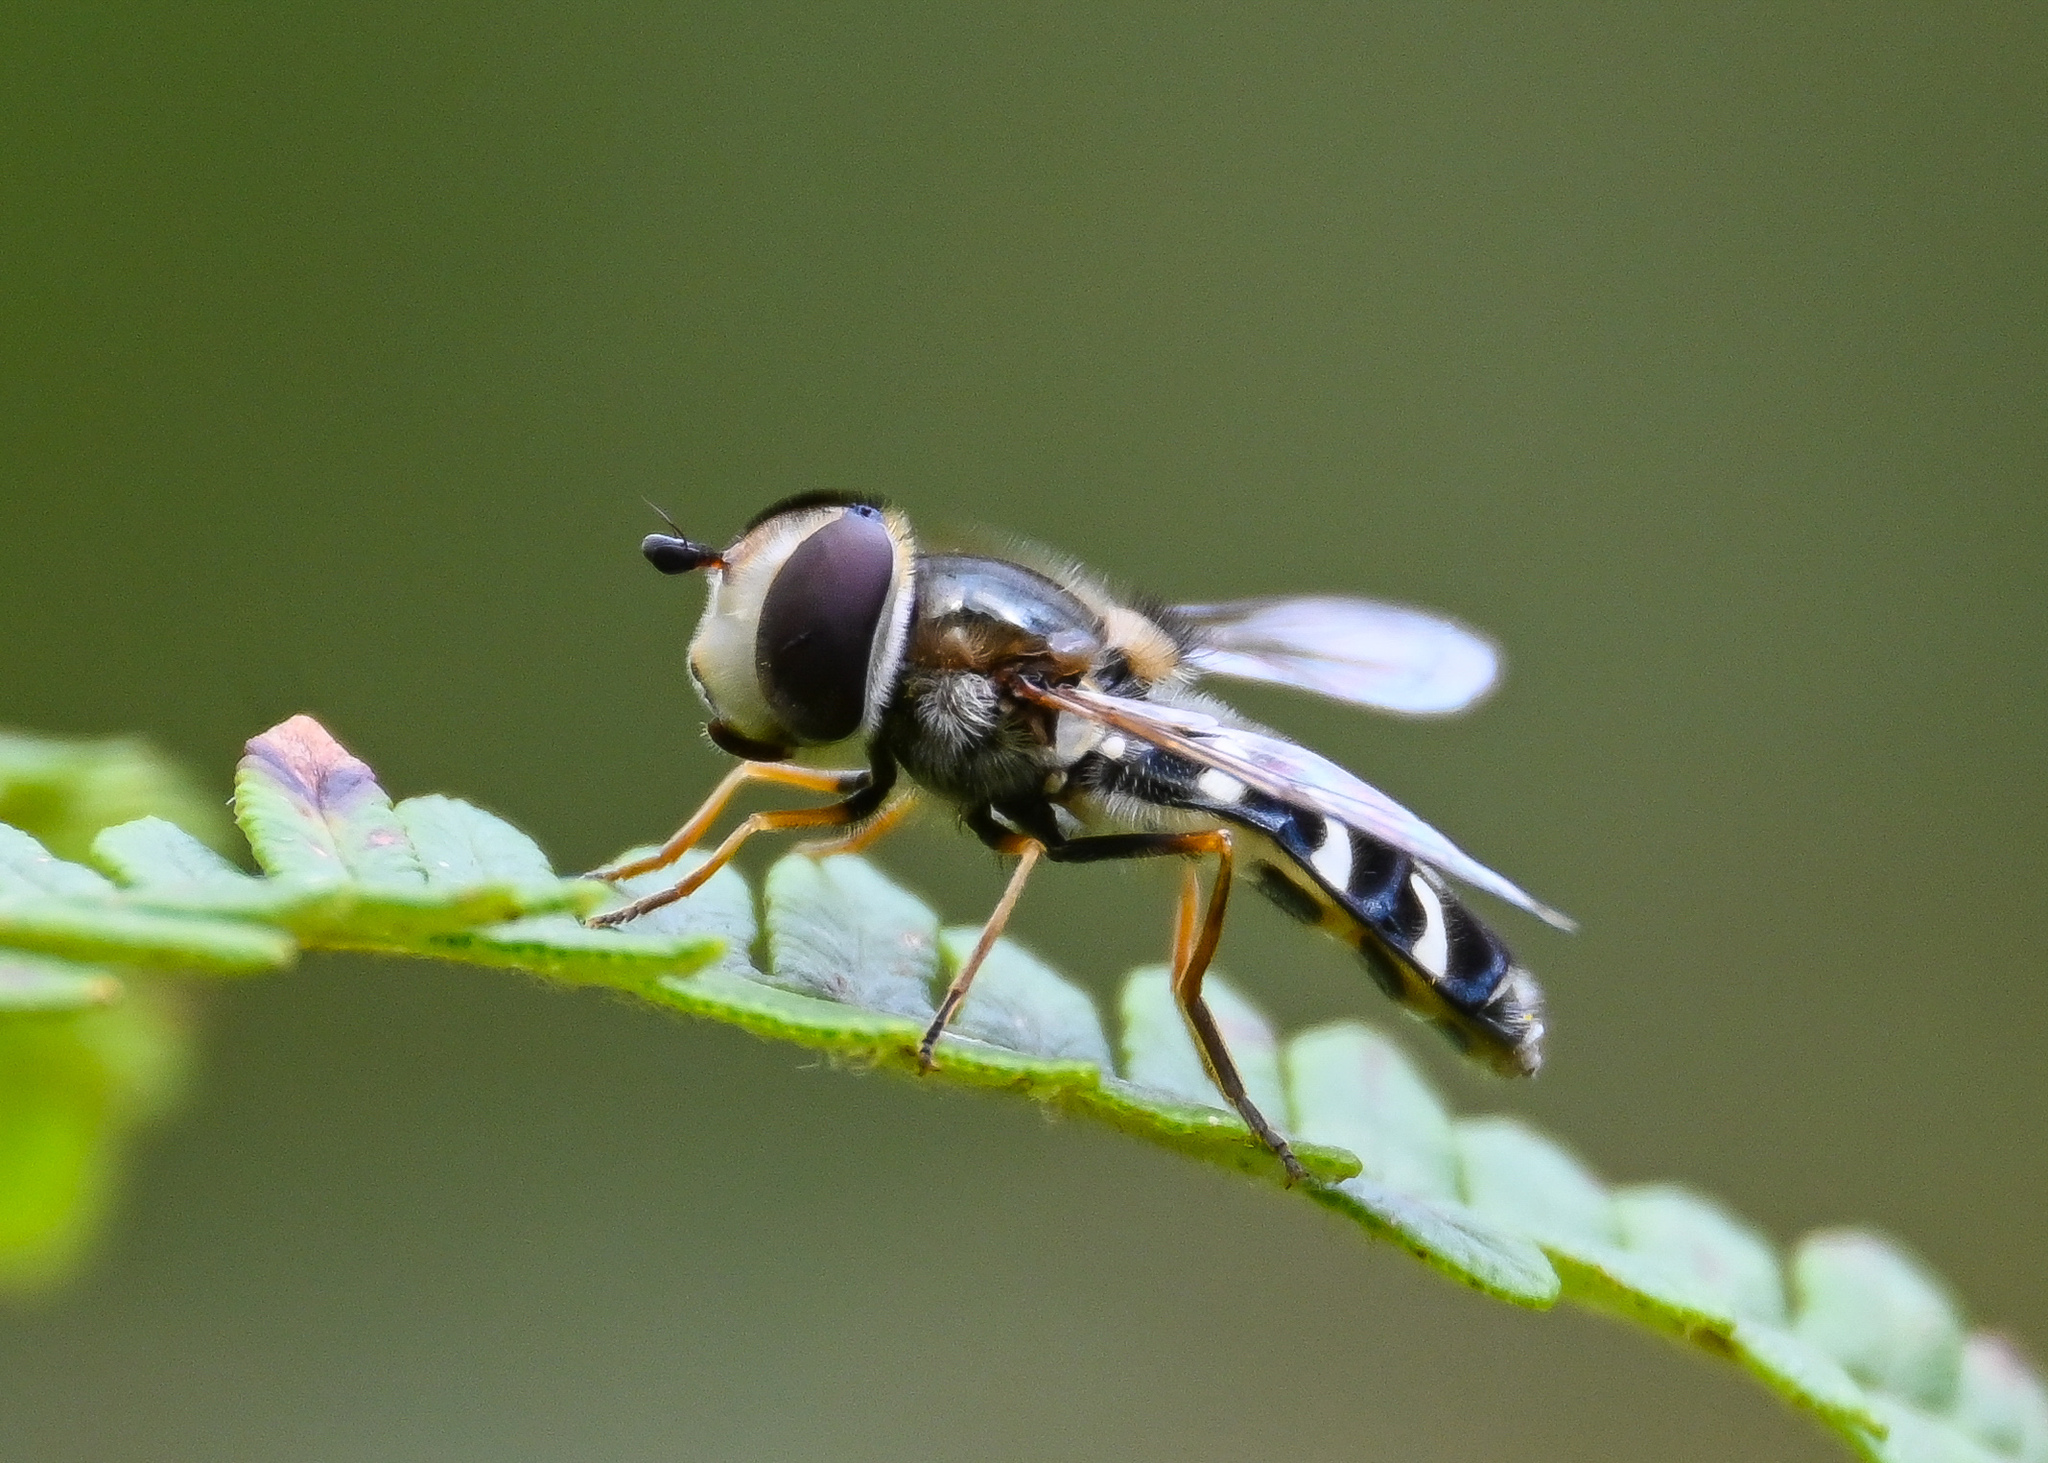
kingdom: Animalia
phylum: Arthropoda
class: Insecta
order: Diptera
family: Syrphidae
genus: Scaeva
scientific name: Scaeva pyrastri
